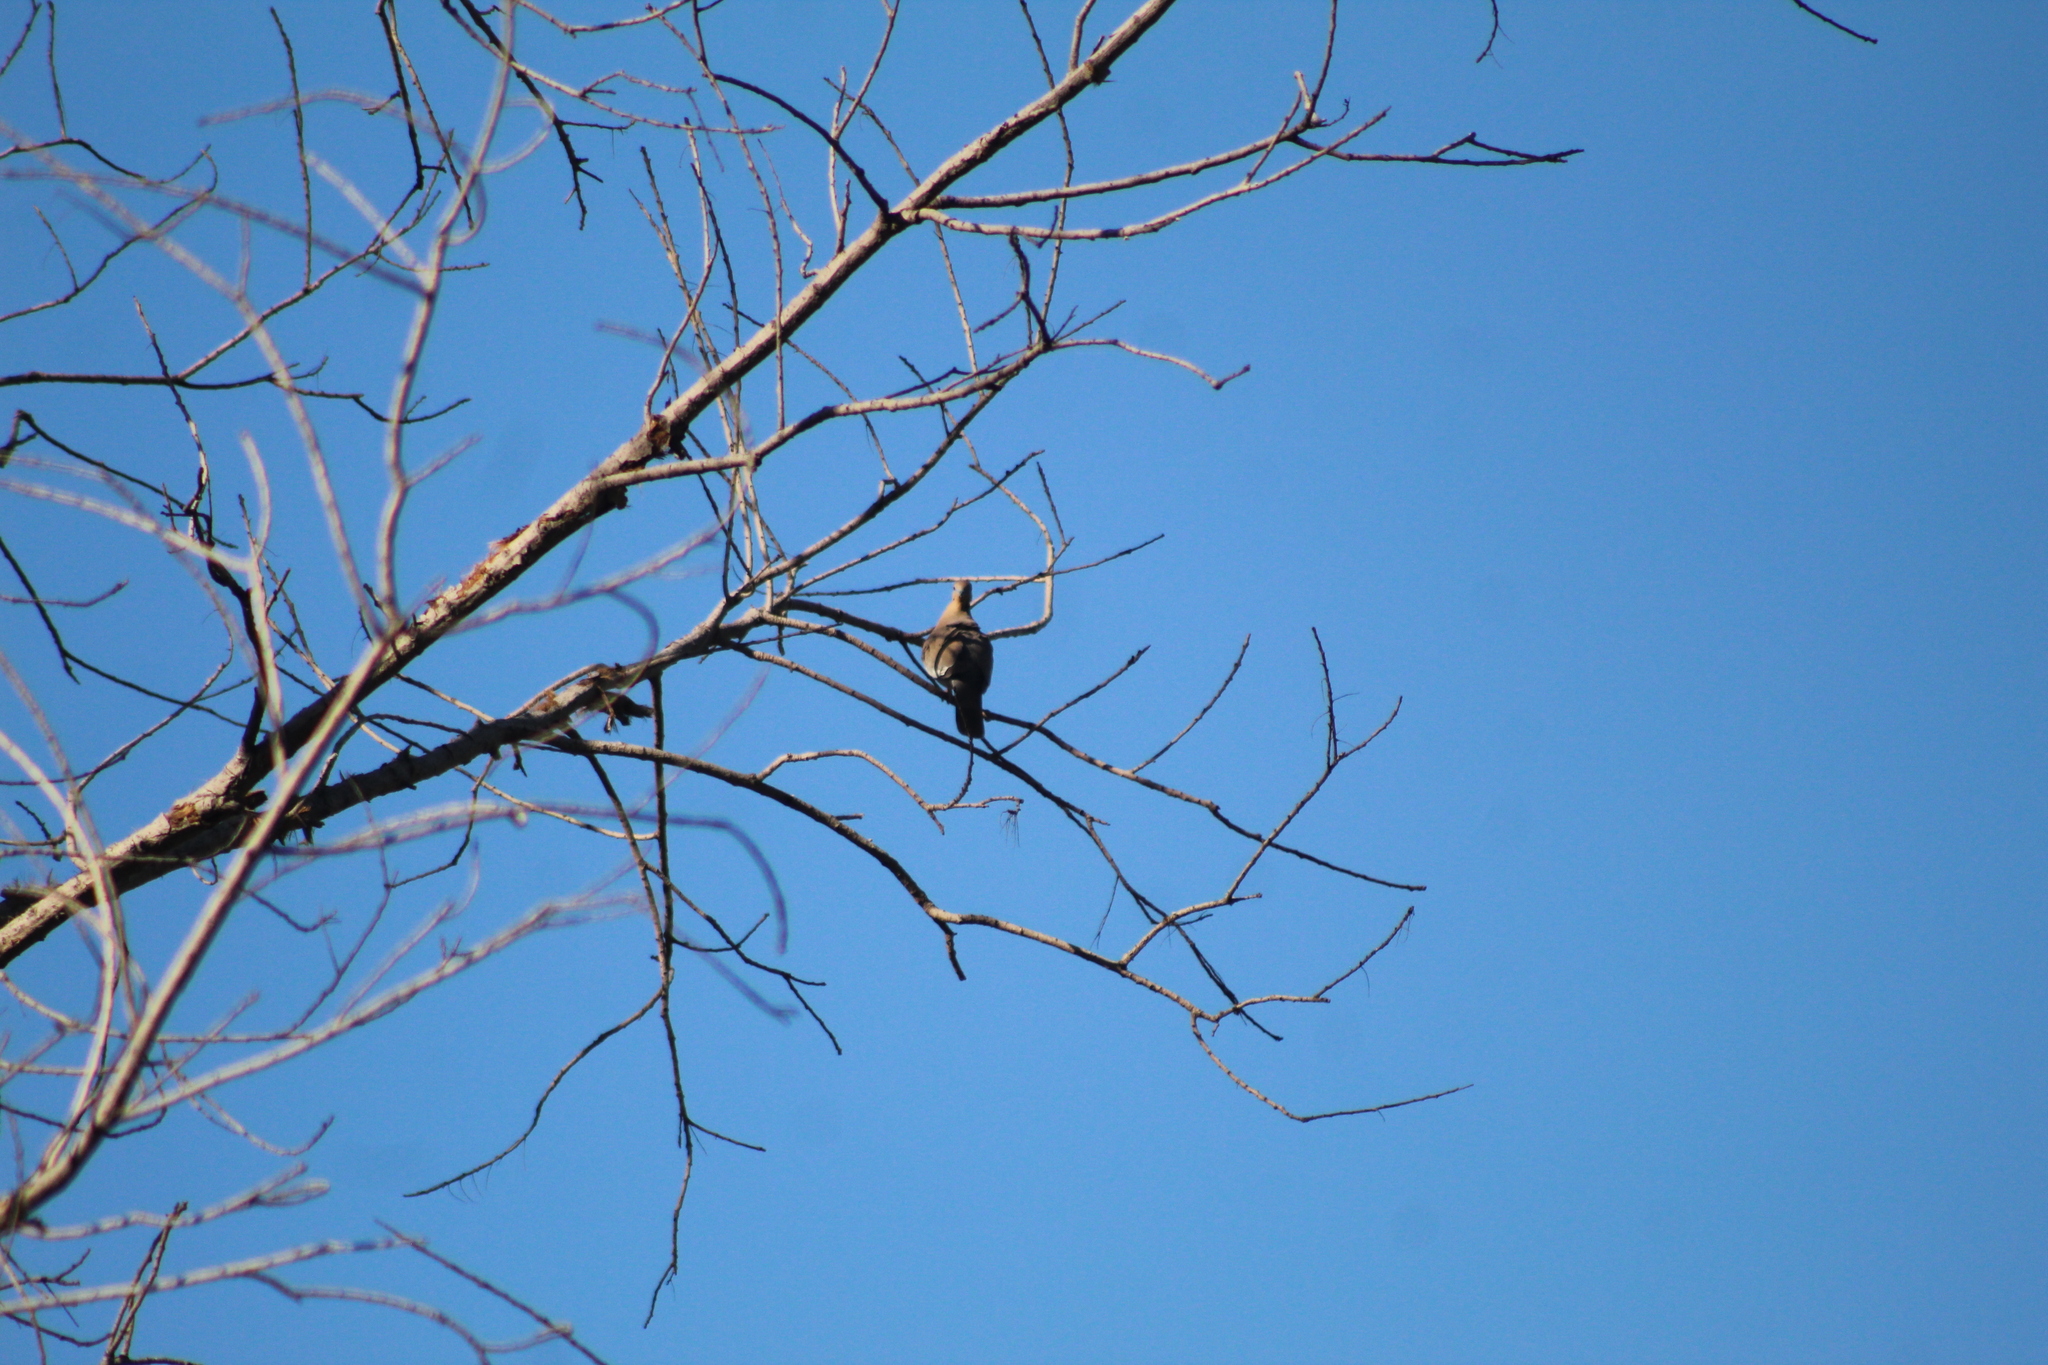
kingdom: Animalia
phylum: Chordata
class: Aves
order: Columbiformes
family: Columbidae
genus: Zenaida
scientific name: Zenaida asiatica
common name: White-winged dove
